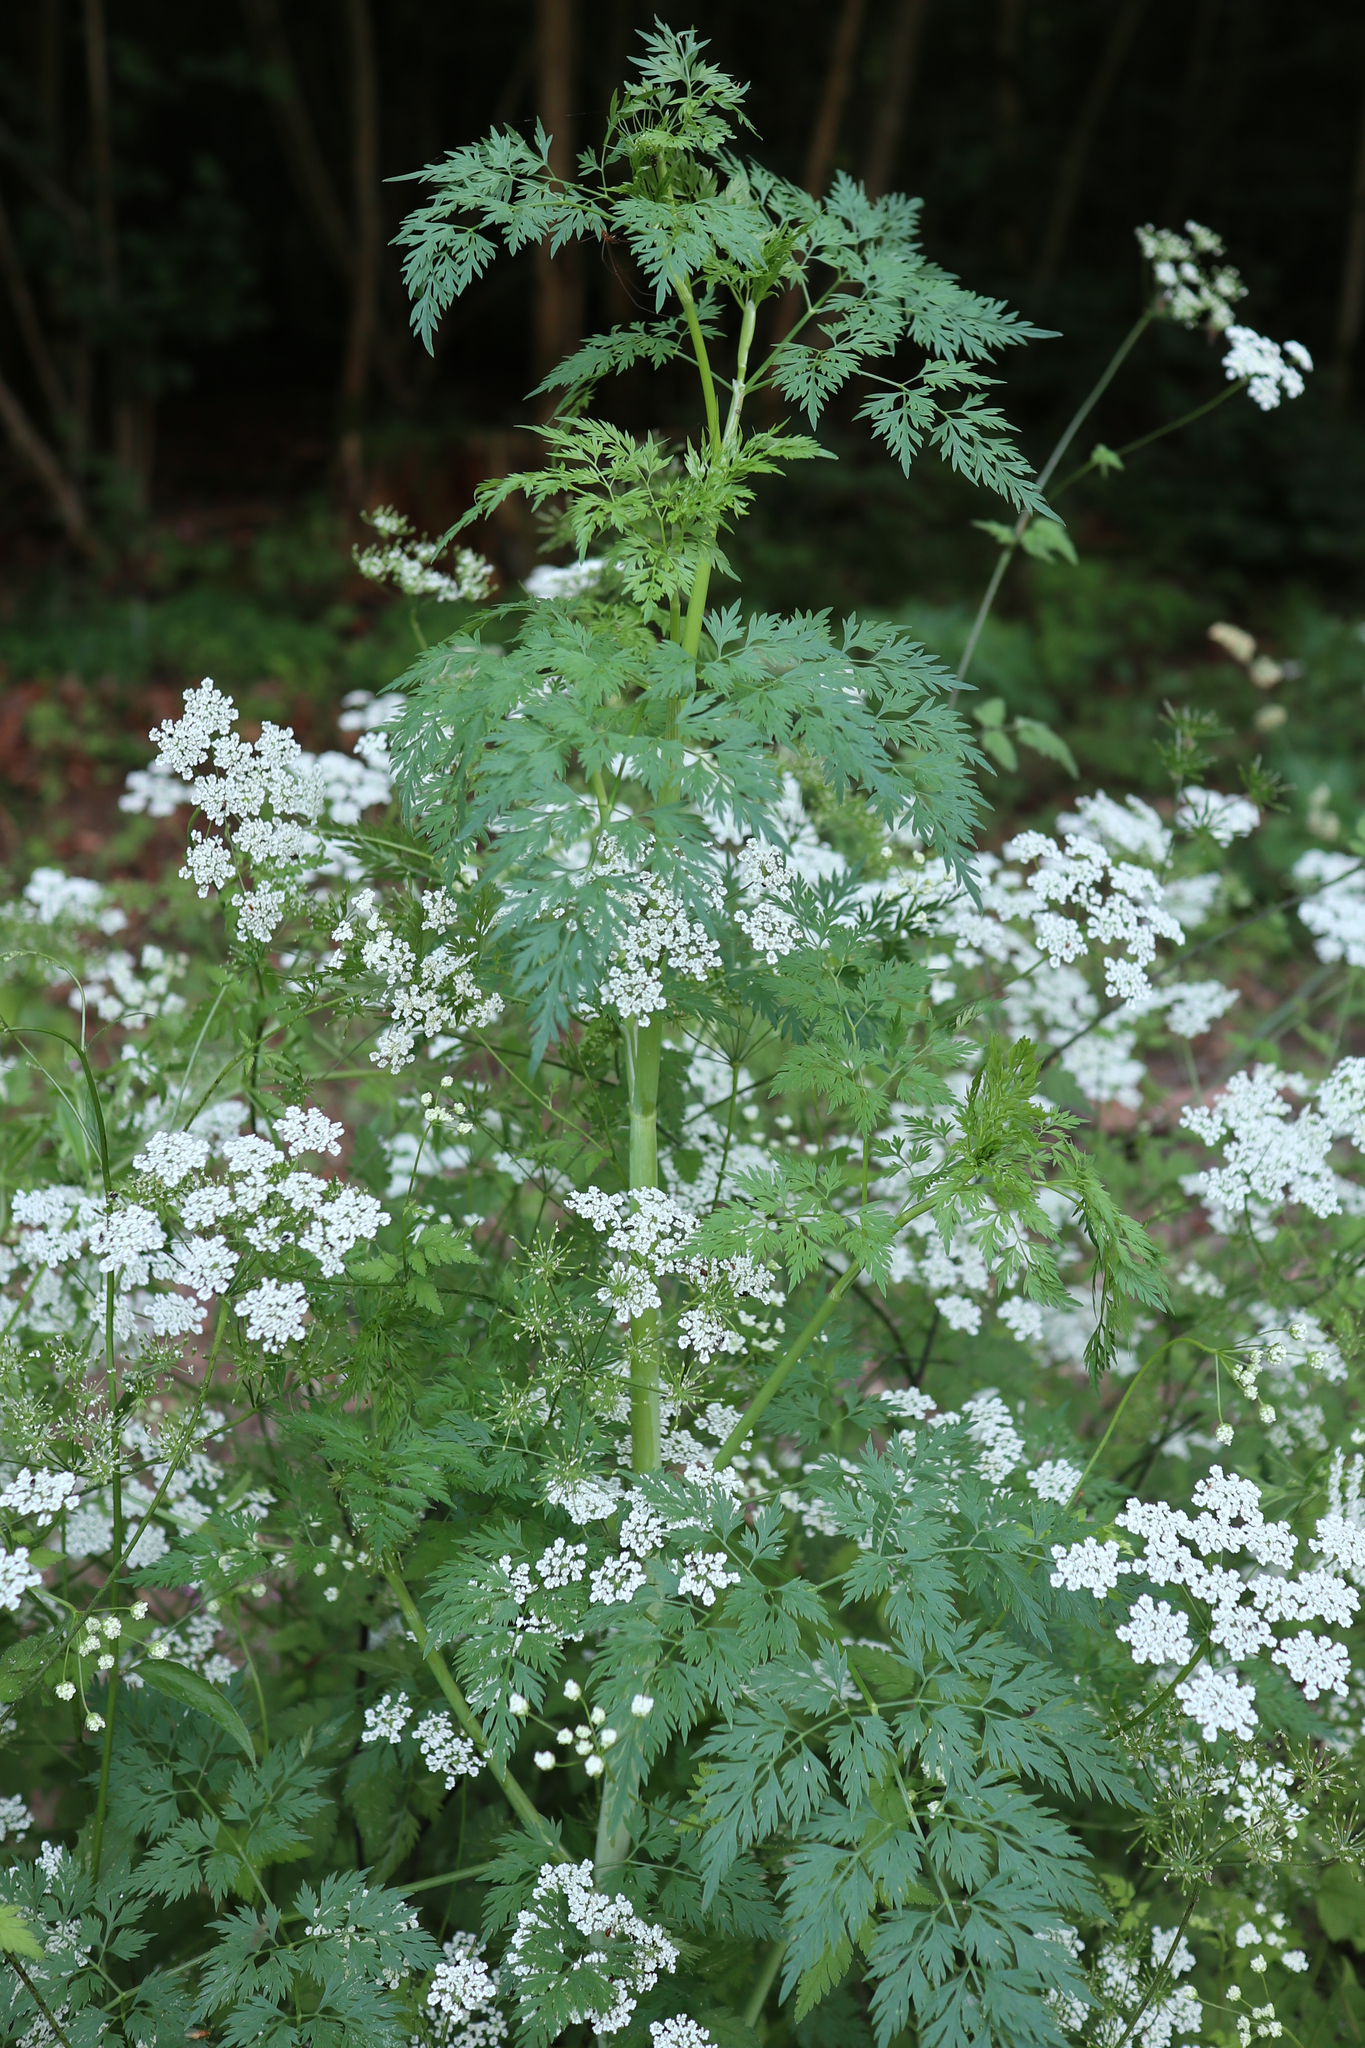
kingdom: Plantae
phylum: Tracheophyta
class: Magnoliopsida
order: Apiales
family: Apiaceae
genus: Aethusa
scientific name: Aethusa cynapium
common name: Fool's parsley
